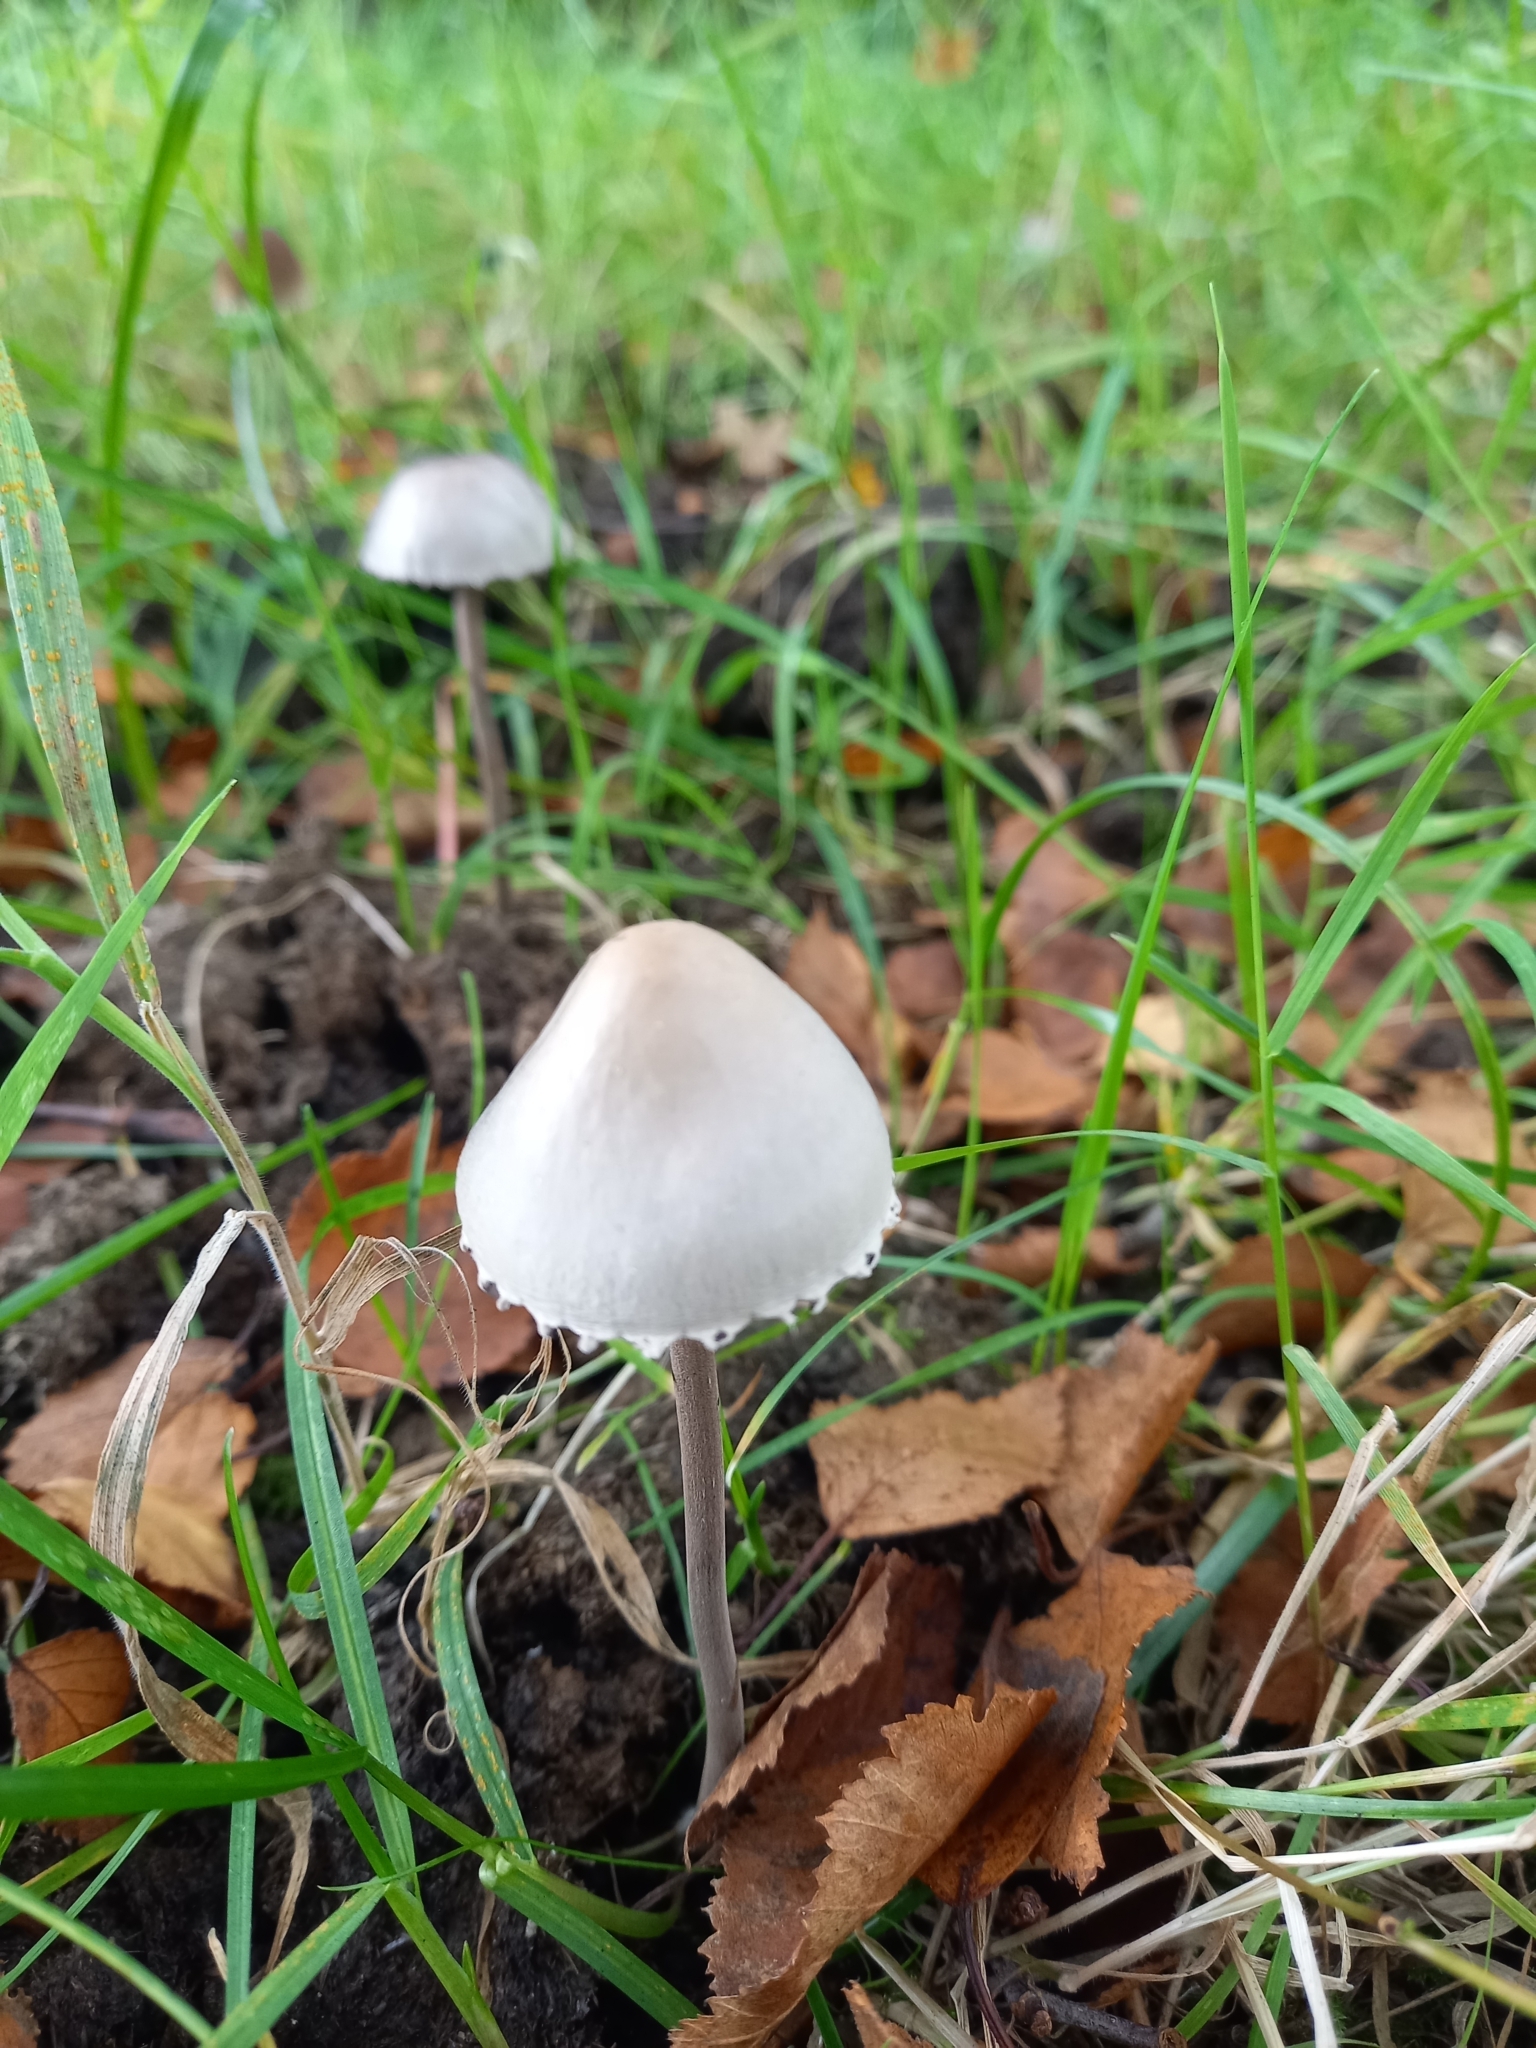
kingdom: Fungi
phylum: Basidiomycota
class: Agaricomycetes
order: Agaricales
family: Bolbitiaceae
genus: Panaeolus
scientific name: Panaeolus papilionaceus
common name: Petticoat mottlegill
